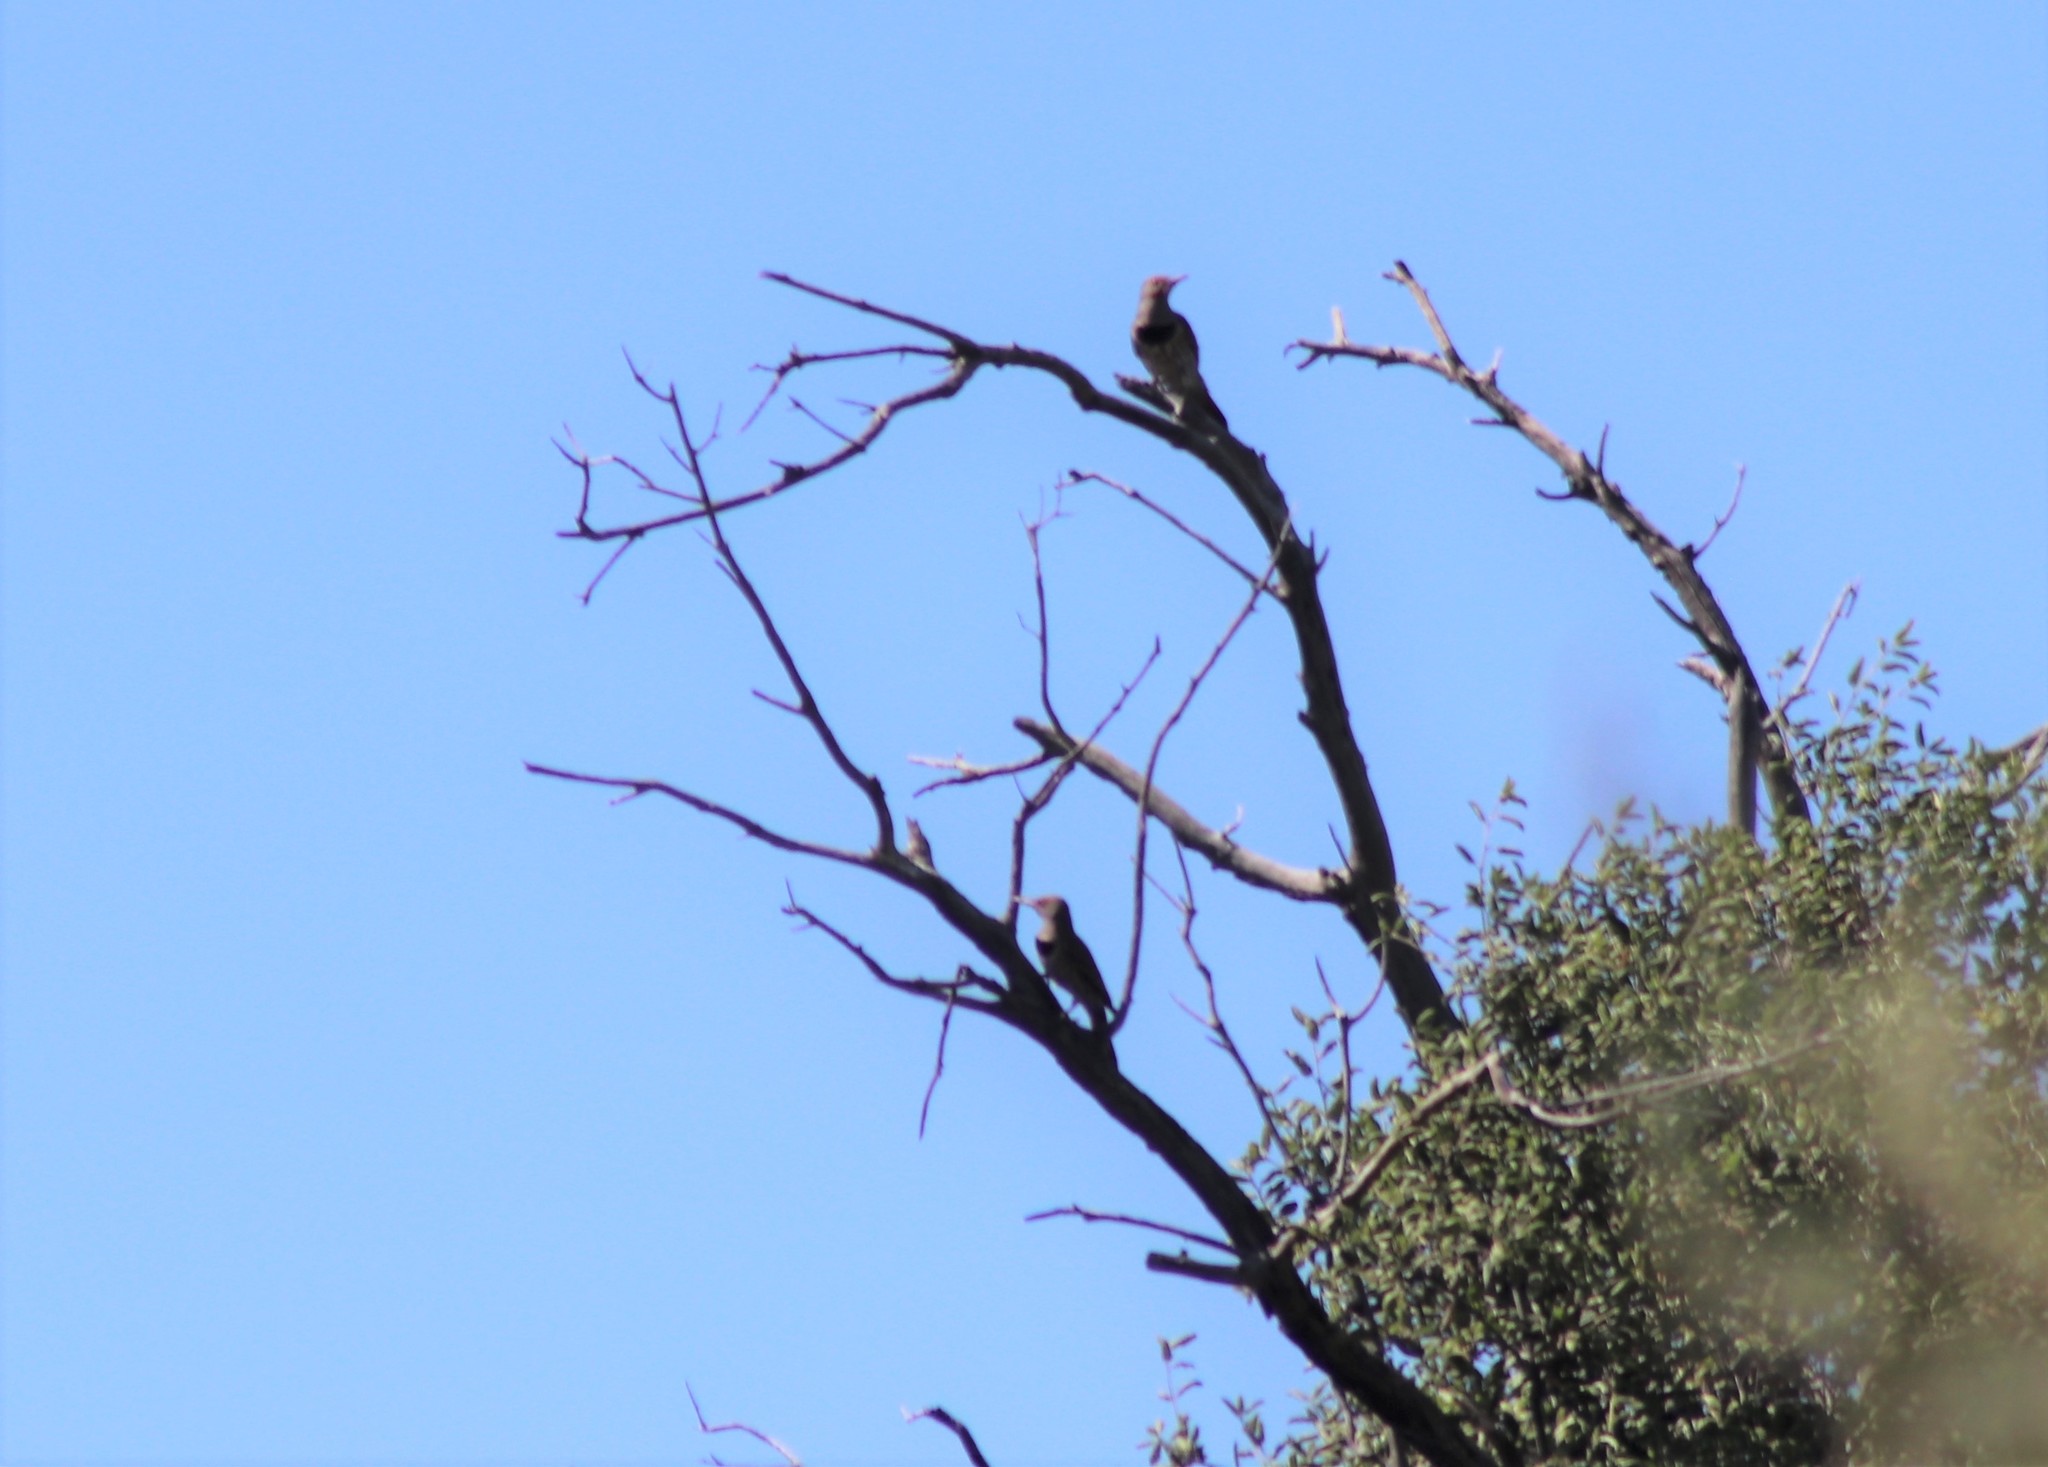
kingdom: Animalia
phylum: Chordata
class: Aves
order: Piciformes
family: Picidae
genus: Colaptes
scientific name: Colaptes auratus
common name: Northern flicker
